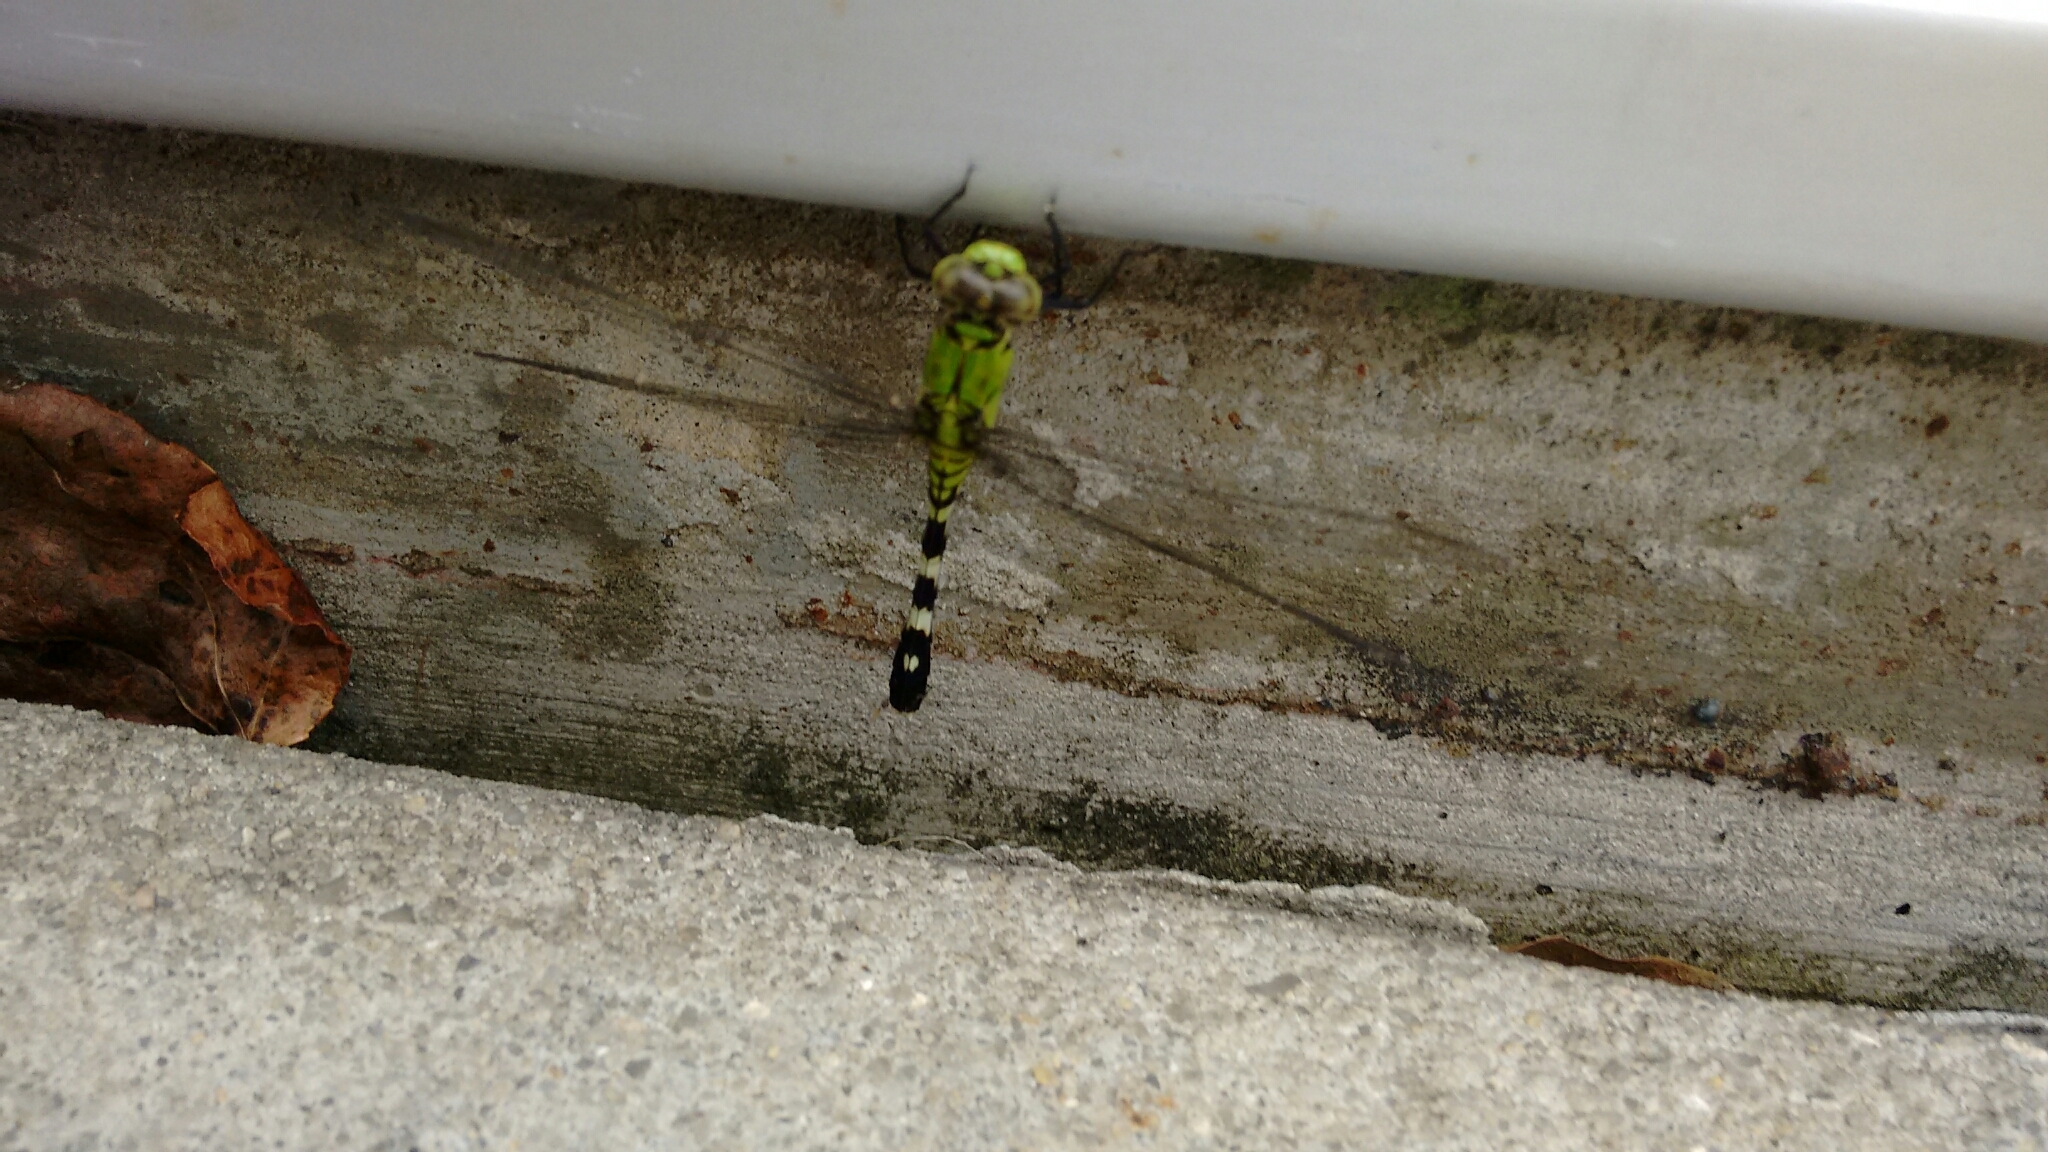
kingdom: Animalia
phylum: Arthropoda
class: Insecta
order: Odonata
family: Libellulidae
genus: Erythemis
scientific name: Erythemis simplicicollis
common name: Eastern pondhawk
